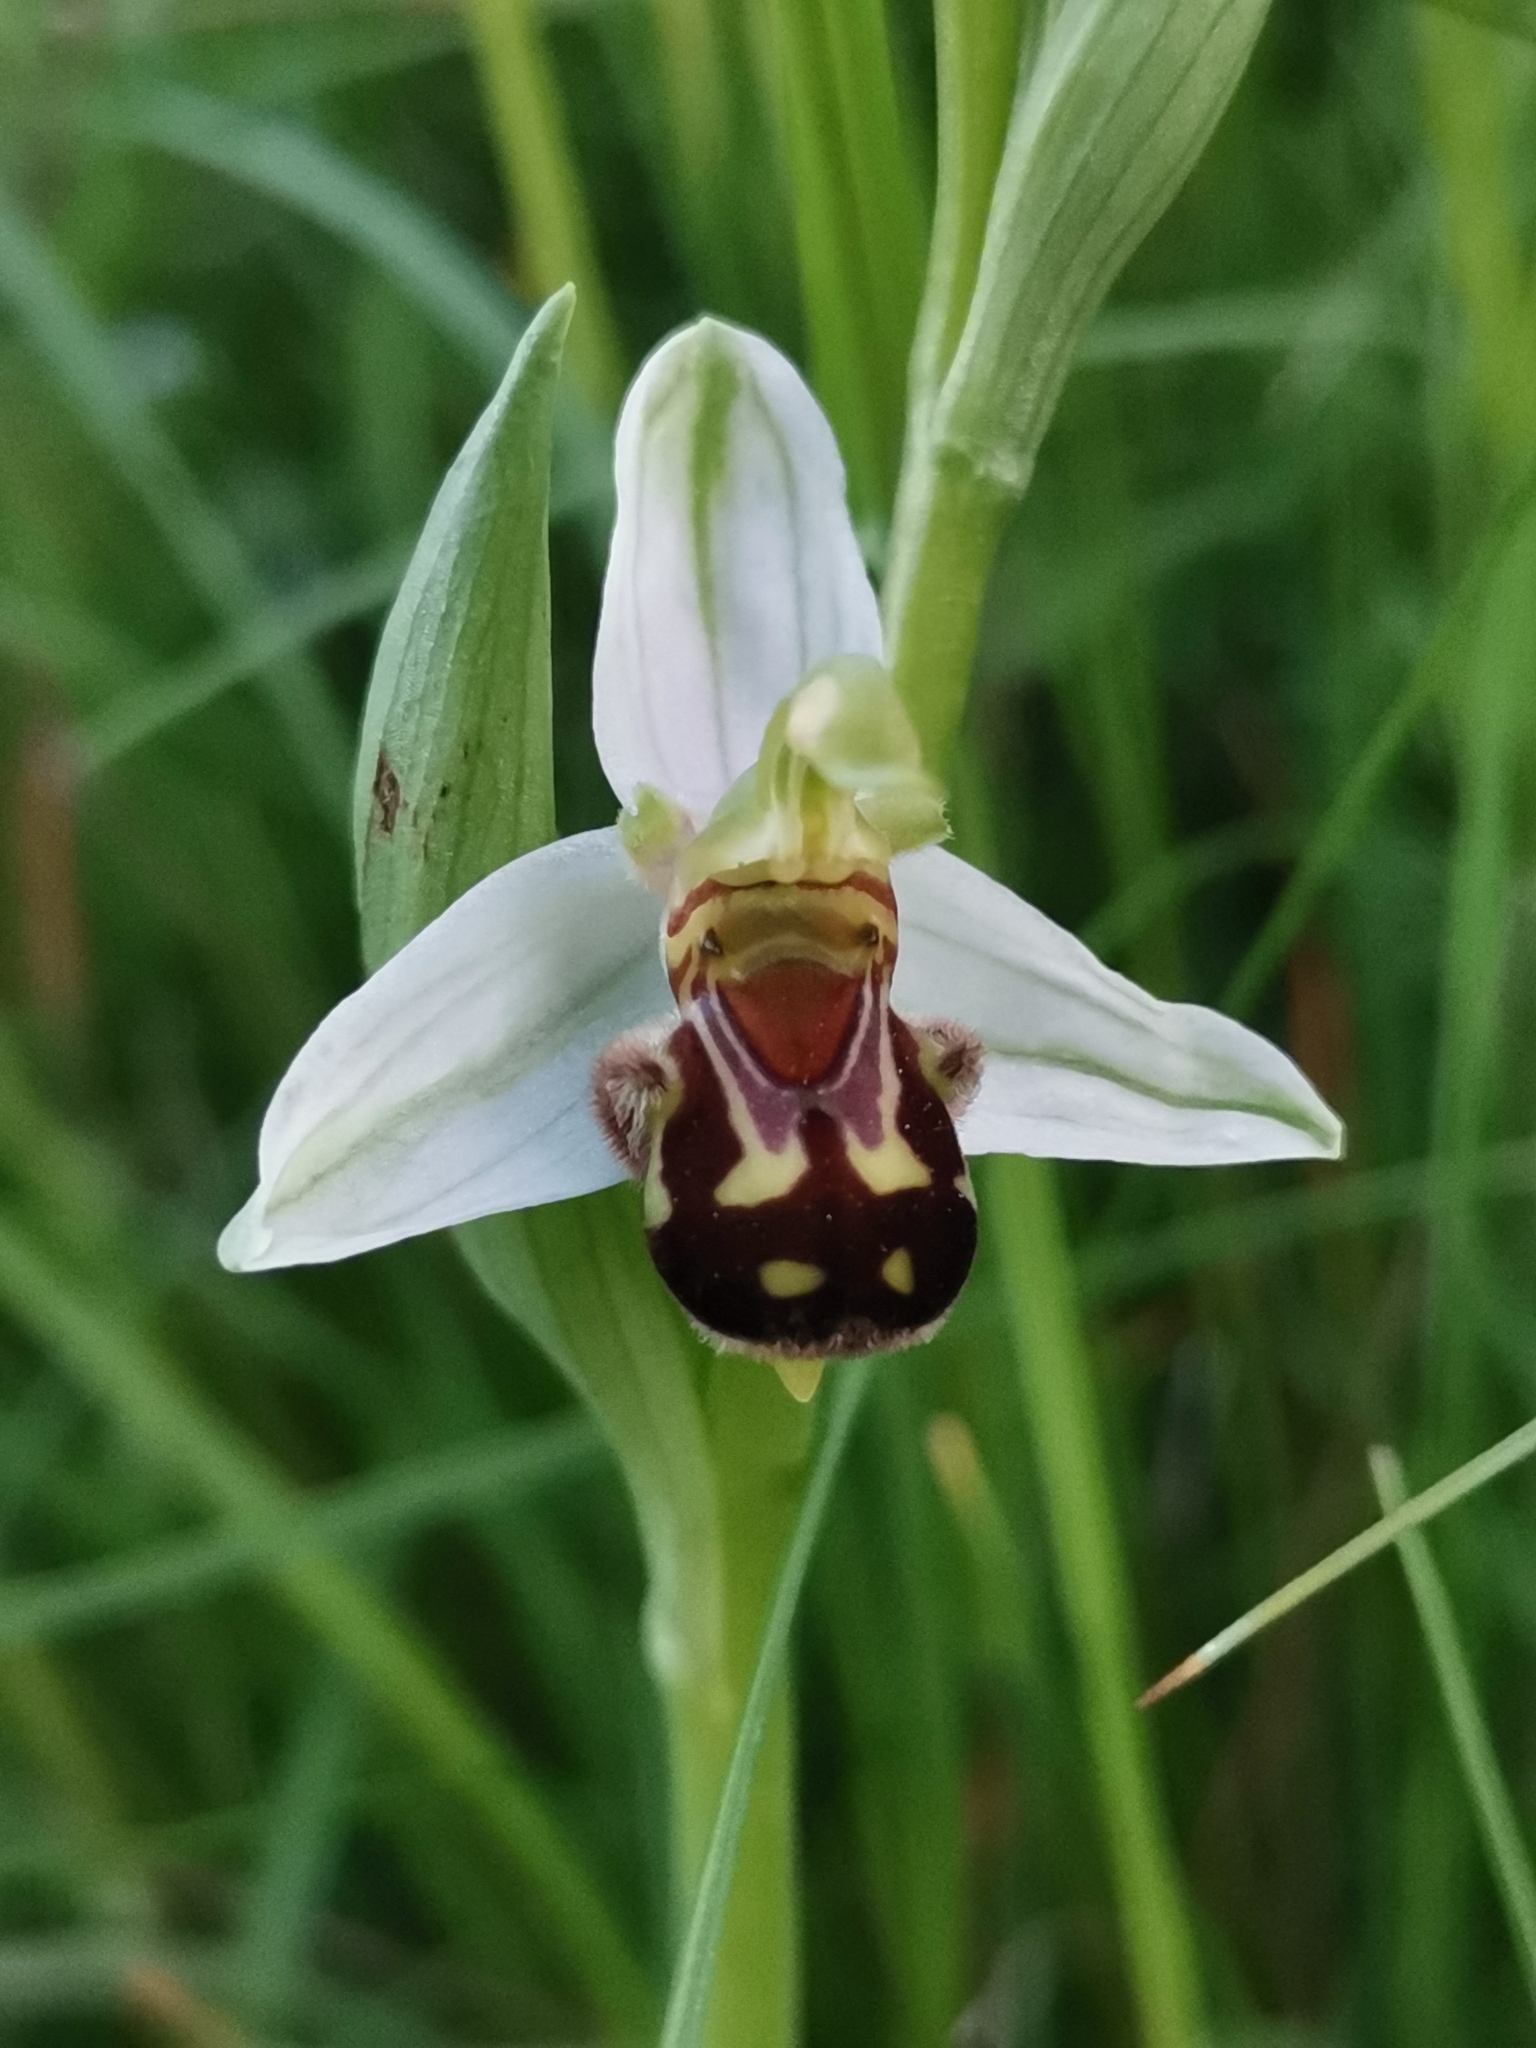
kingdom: Plantae
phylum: Tracheophyta
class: Liliopsida
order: Asparagales
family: Orchidaceae
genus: Ophrys
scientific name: Ophrys apifera
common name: Bee orchid
